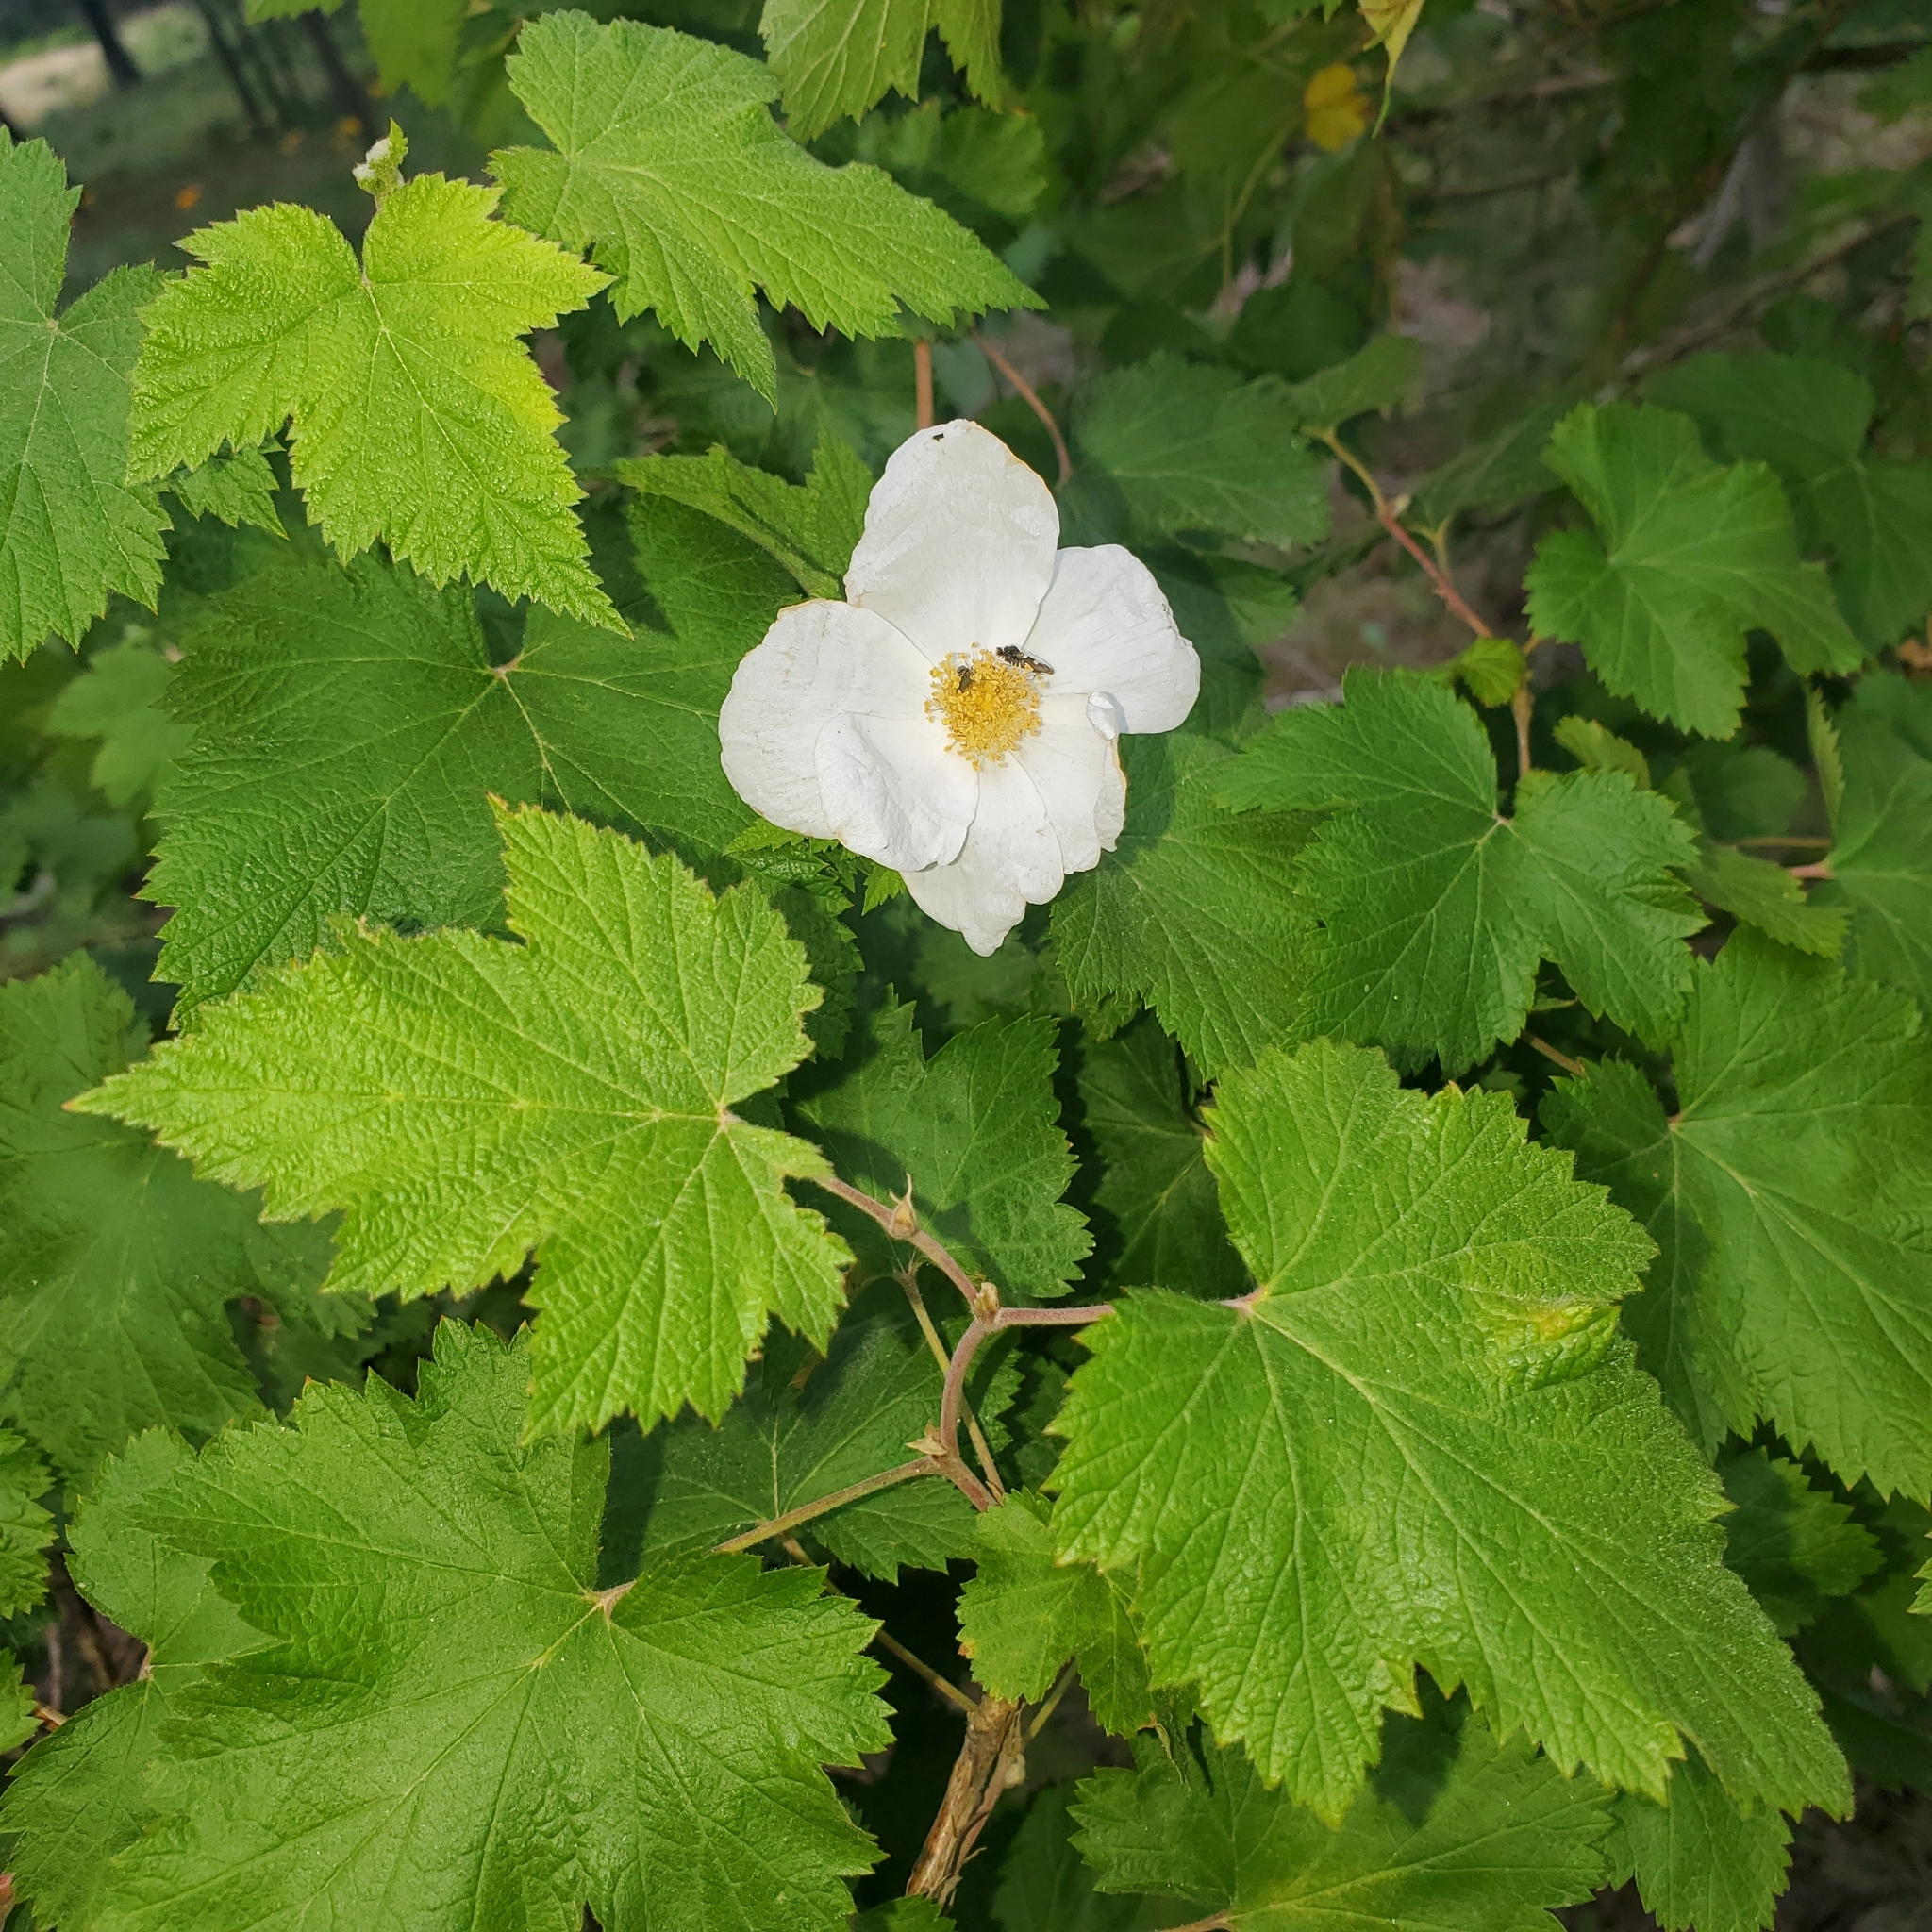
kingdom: Plantae
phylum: Tracheophyta
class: Magnoliopsida
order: Rosales
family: Rosaceae
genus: Rubus
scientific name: Rubus neomexicanus
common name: New mexico raspberry
